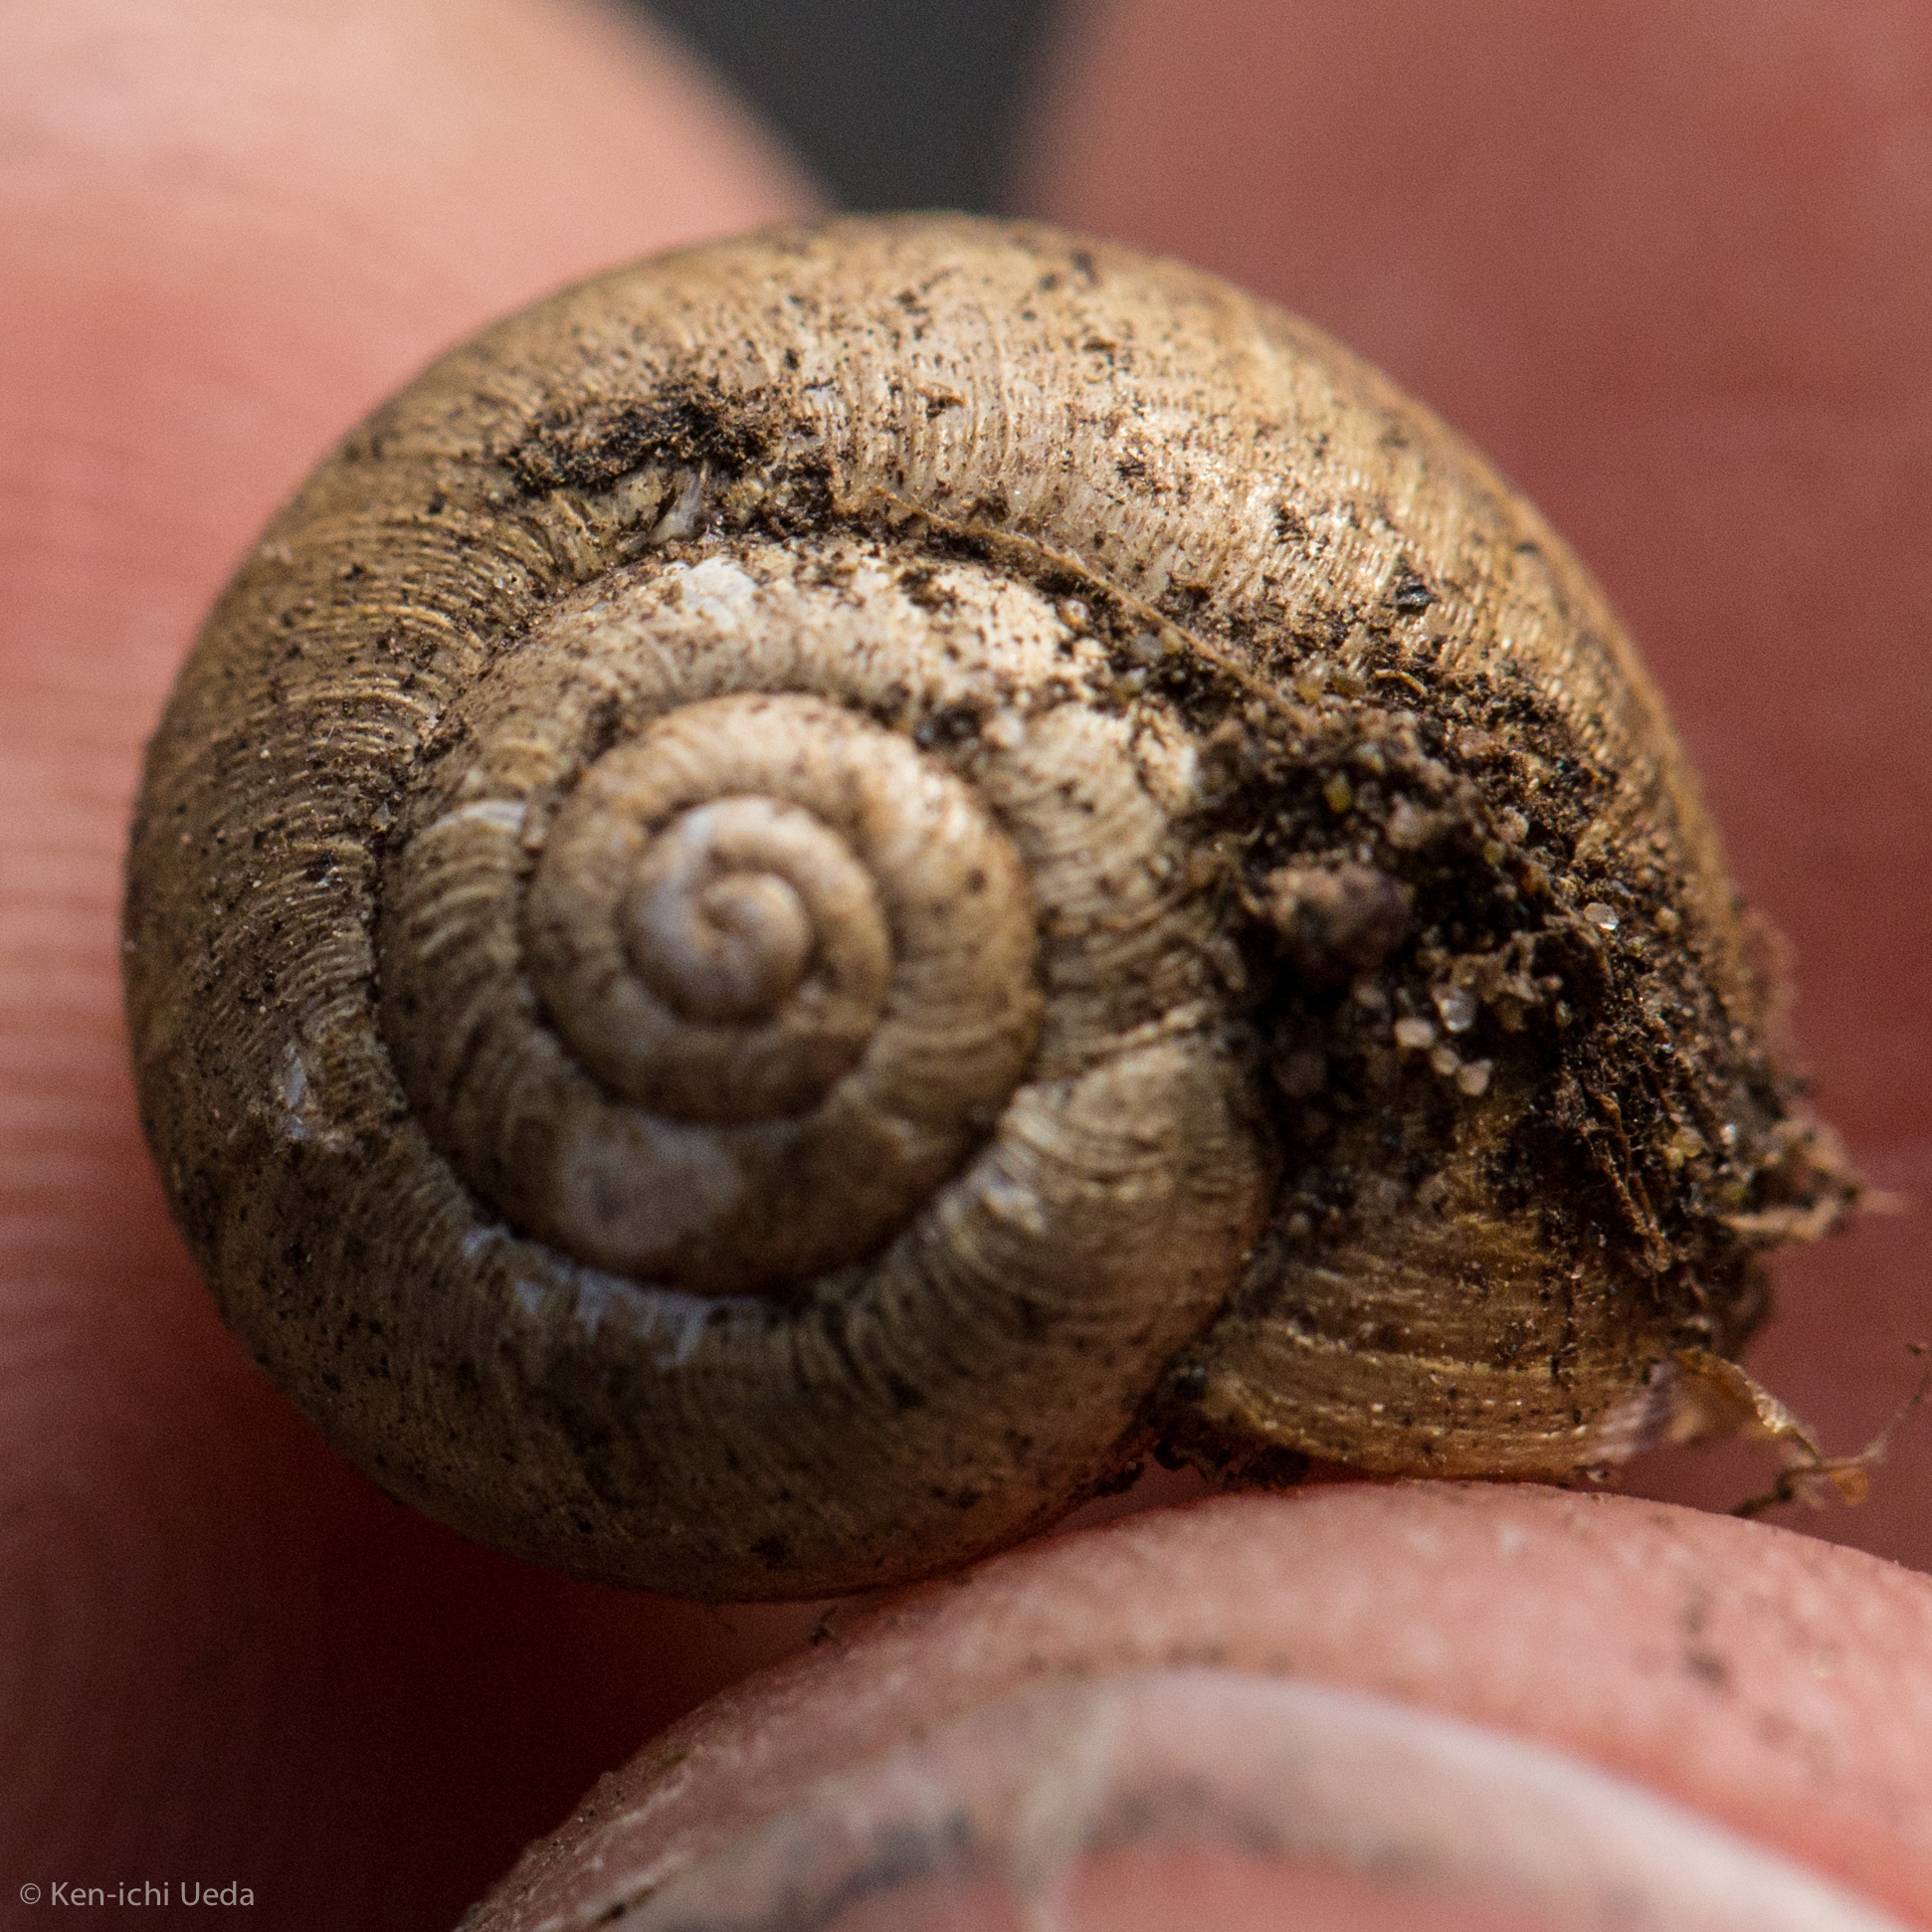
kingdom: Animalia
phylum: Mollusca
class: Gastropoda
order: Stylommatophora
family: Xanthonychidae
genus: Helminthoglypta
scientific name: Helminthoglypta nickliniana
